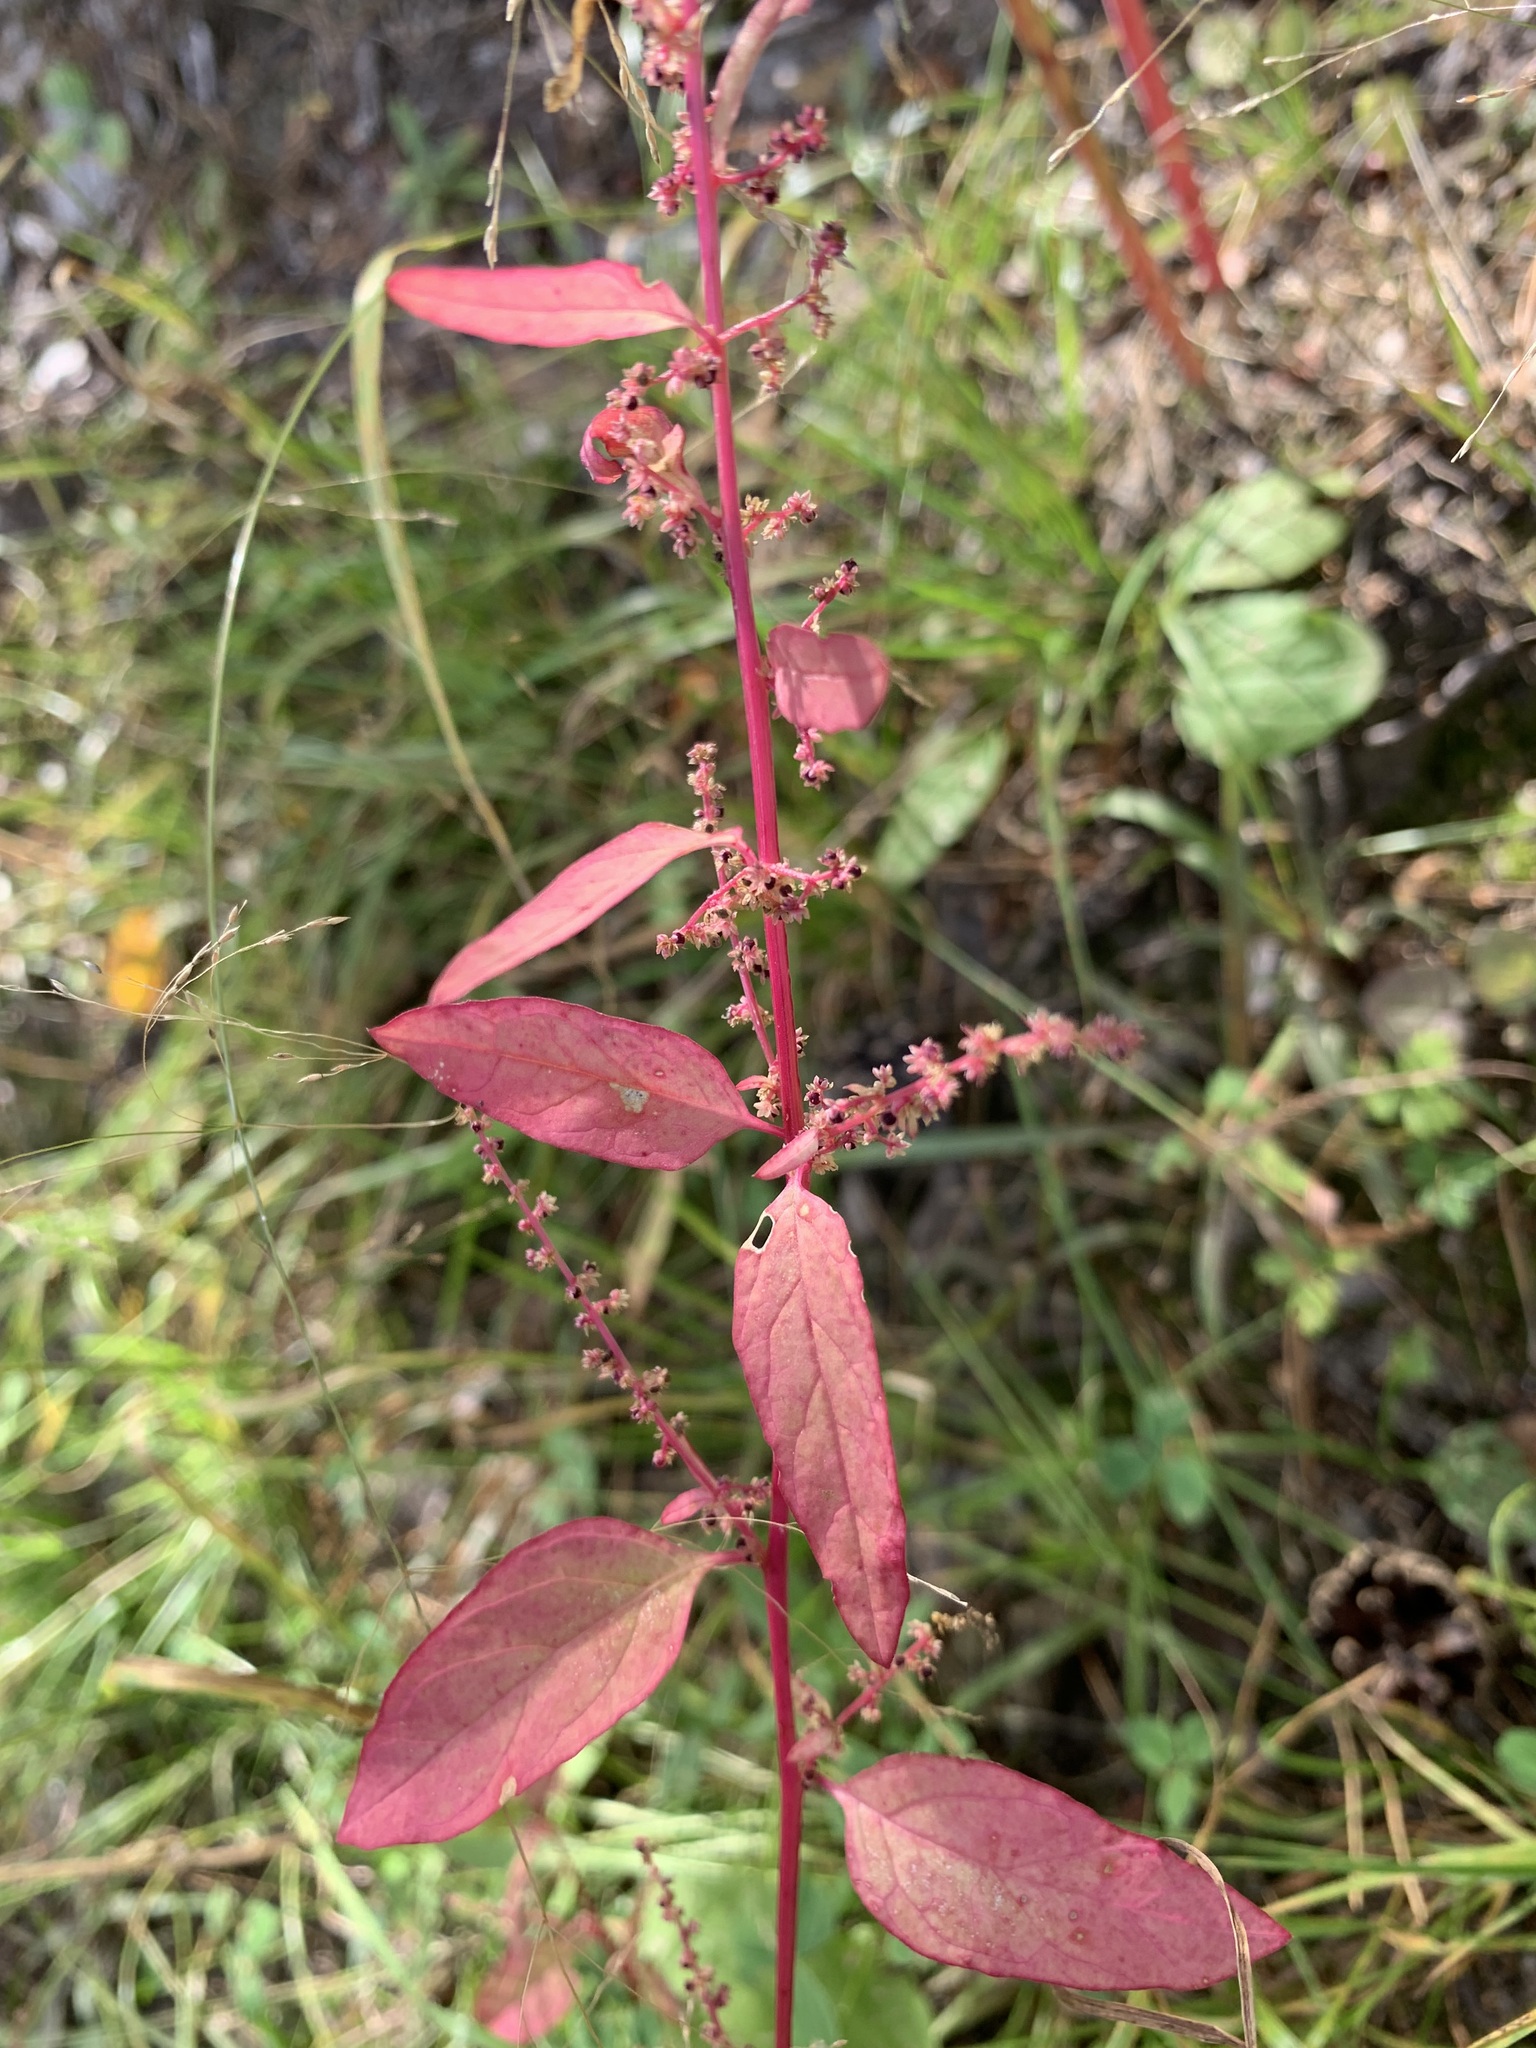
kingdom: Plantae
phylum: Tracheophyta
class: Magnoliopsida
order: Caryophyllales
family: Amaranthaceae
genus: Lipandra
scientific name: Lipandra polysperma
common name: Many-seed goosefoot
